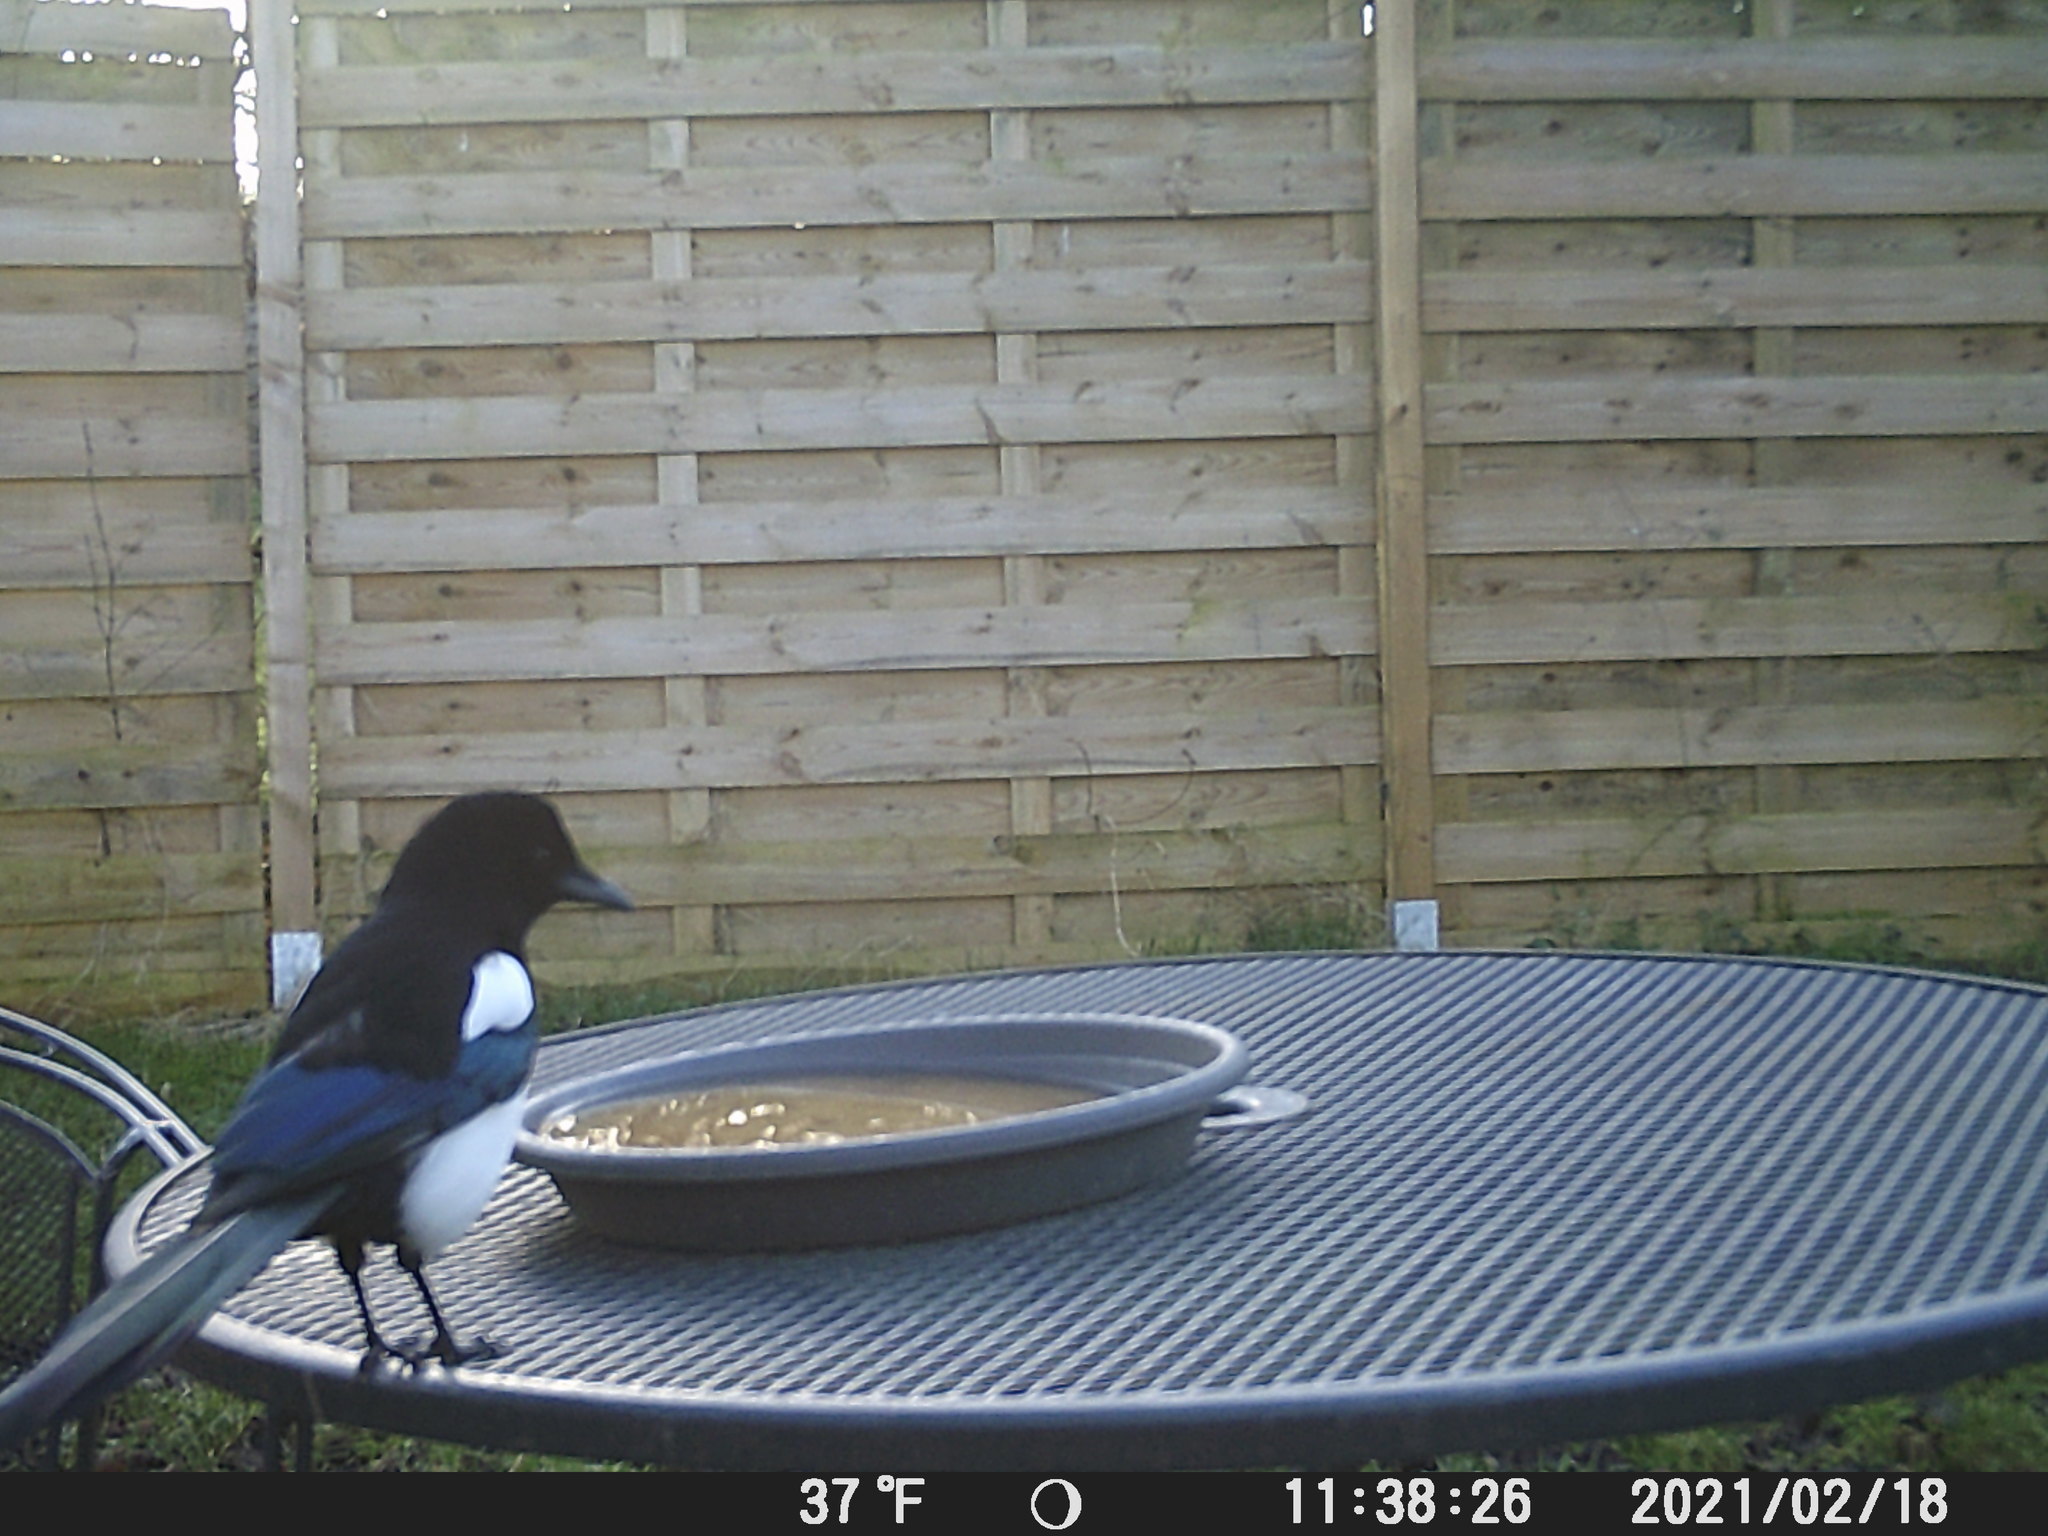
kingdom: Animalia
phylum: Chordata
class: Aves
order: Passeriformes
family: Corvidae
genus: Pica
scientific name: Pica pica
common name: Eurasian magpie
